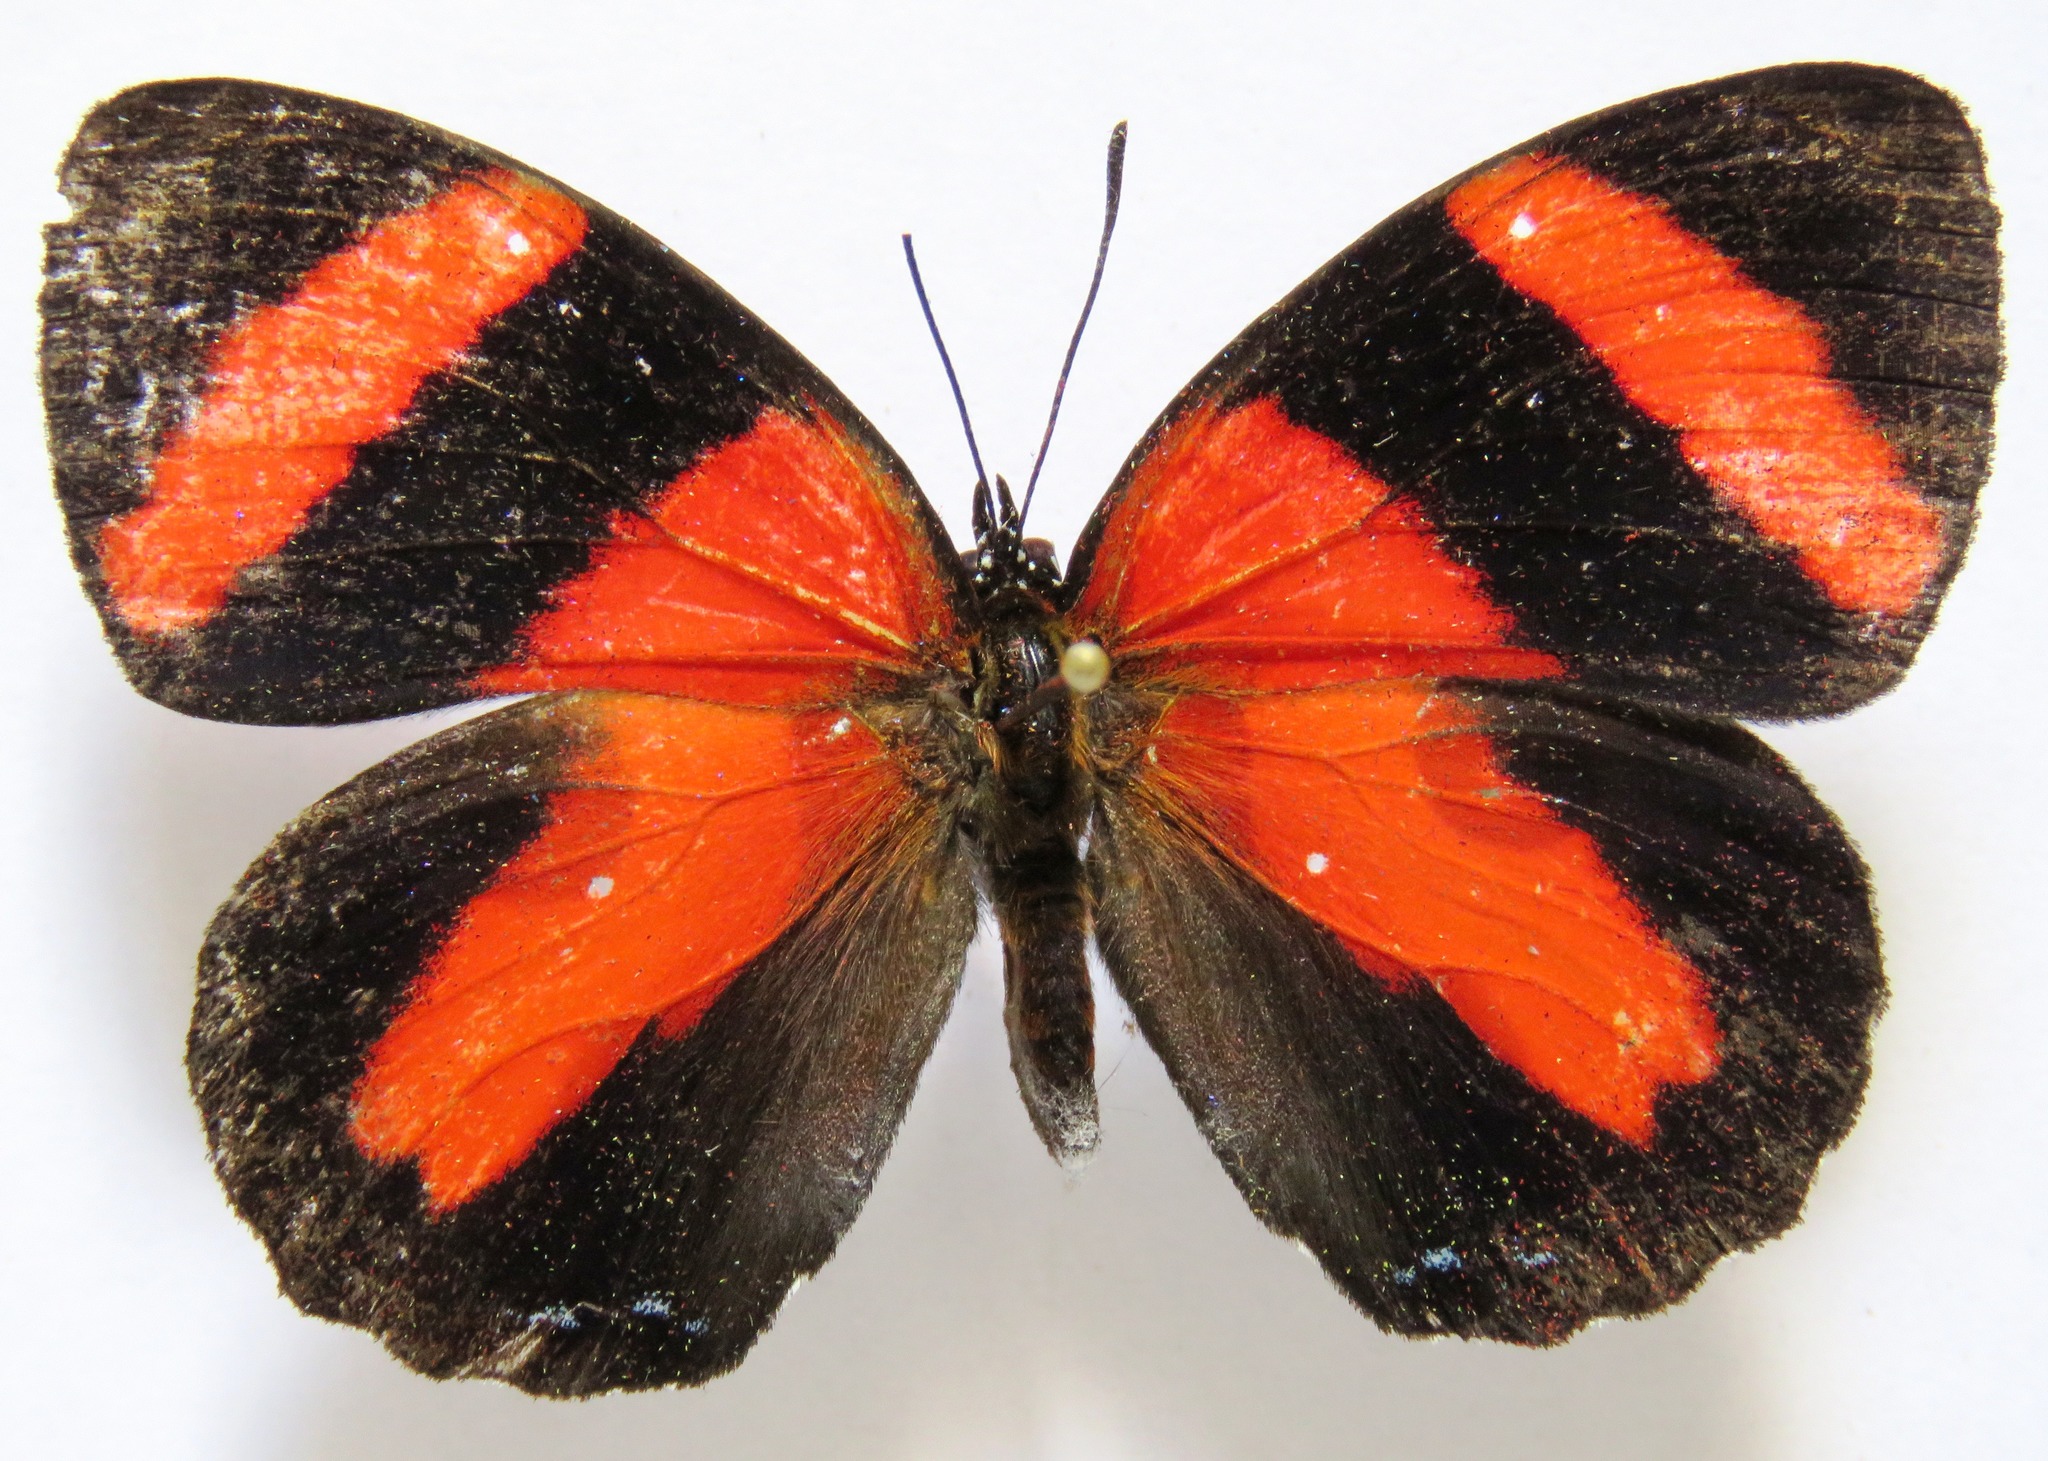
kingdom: Animalia
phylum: Arthropoda
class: Insecta
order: Lepidoptera
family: Nymphalidae
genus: Catagramma
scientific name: Catagramma Callicore pitheas
